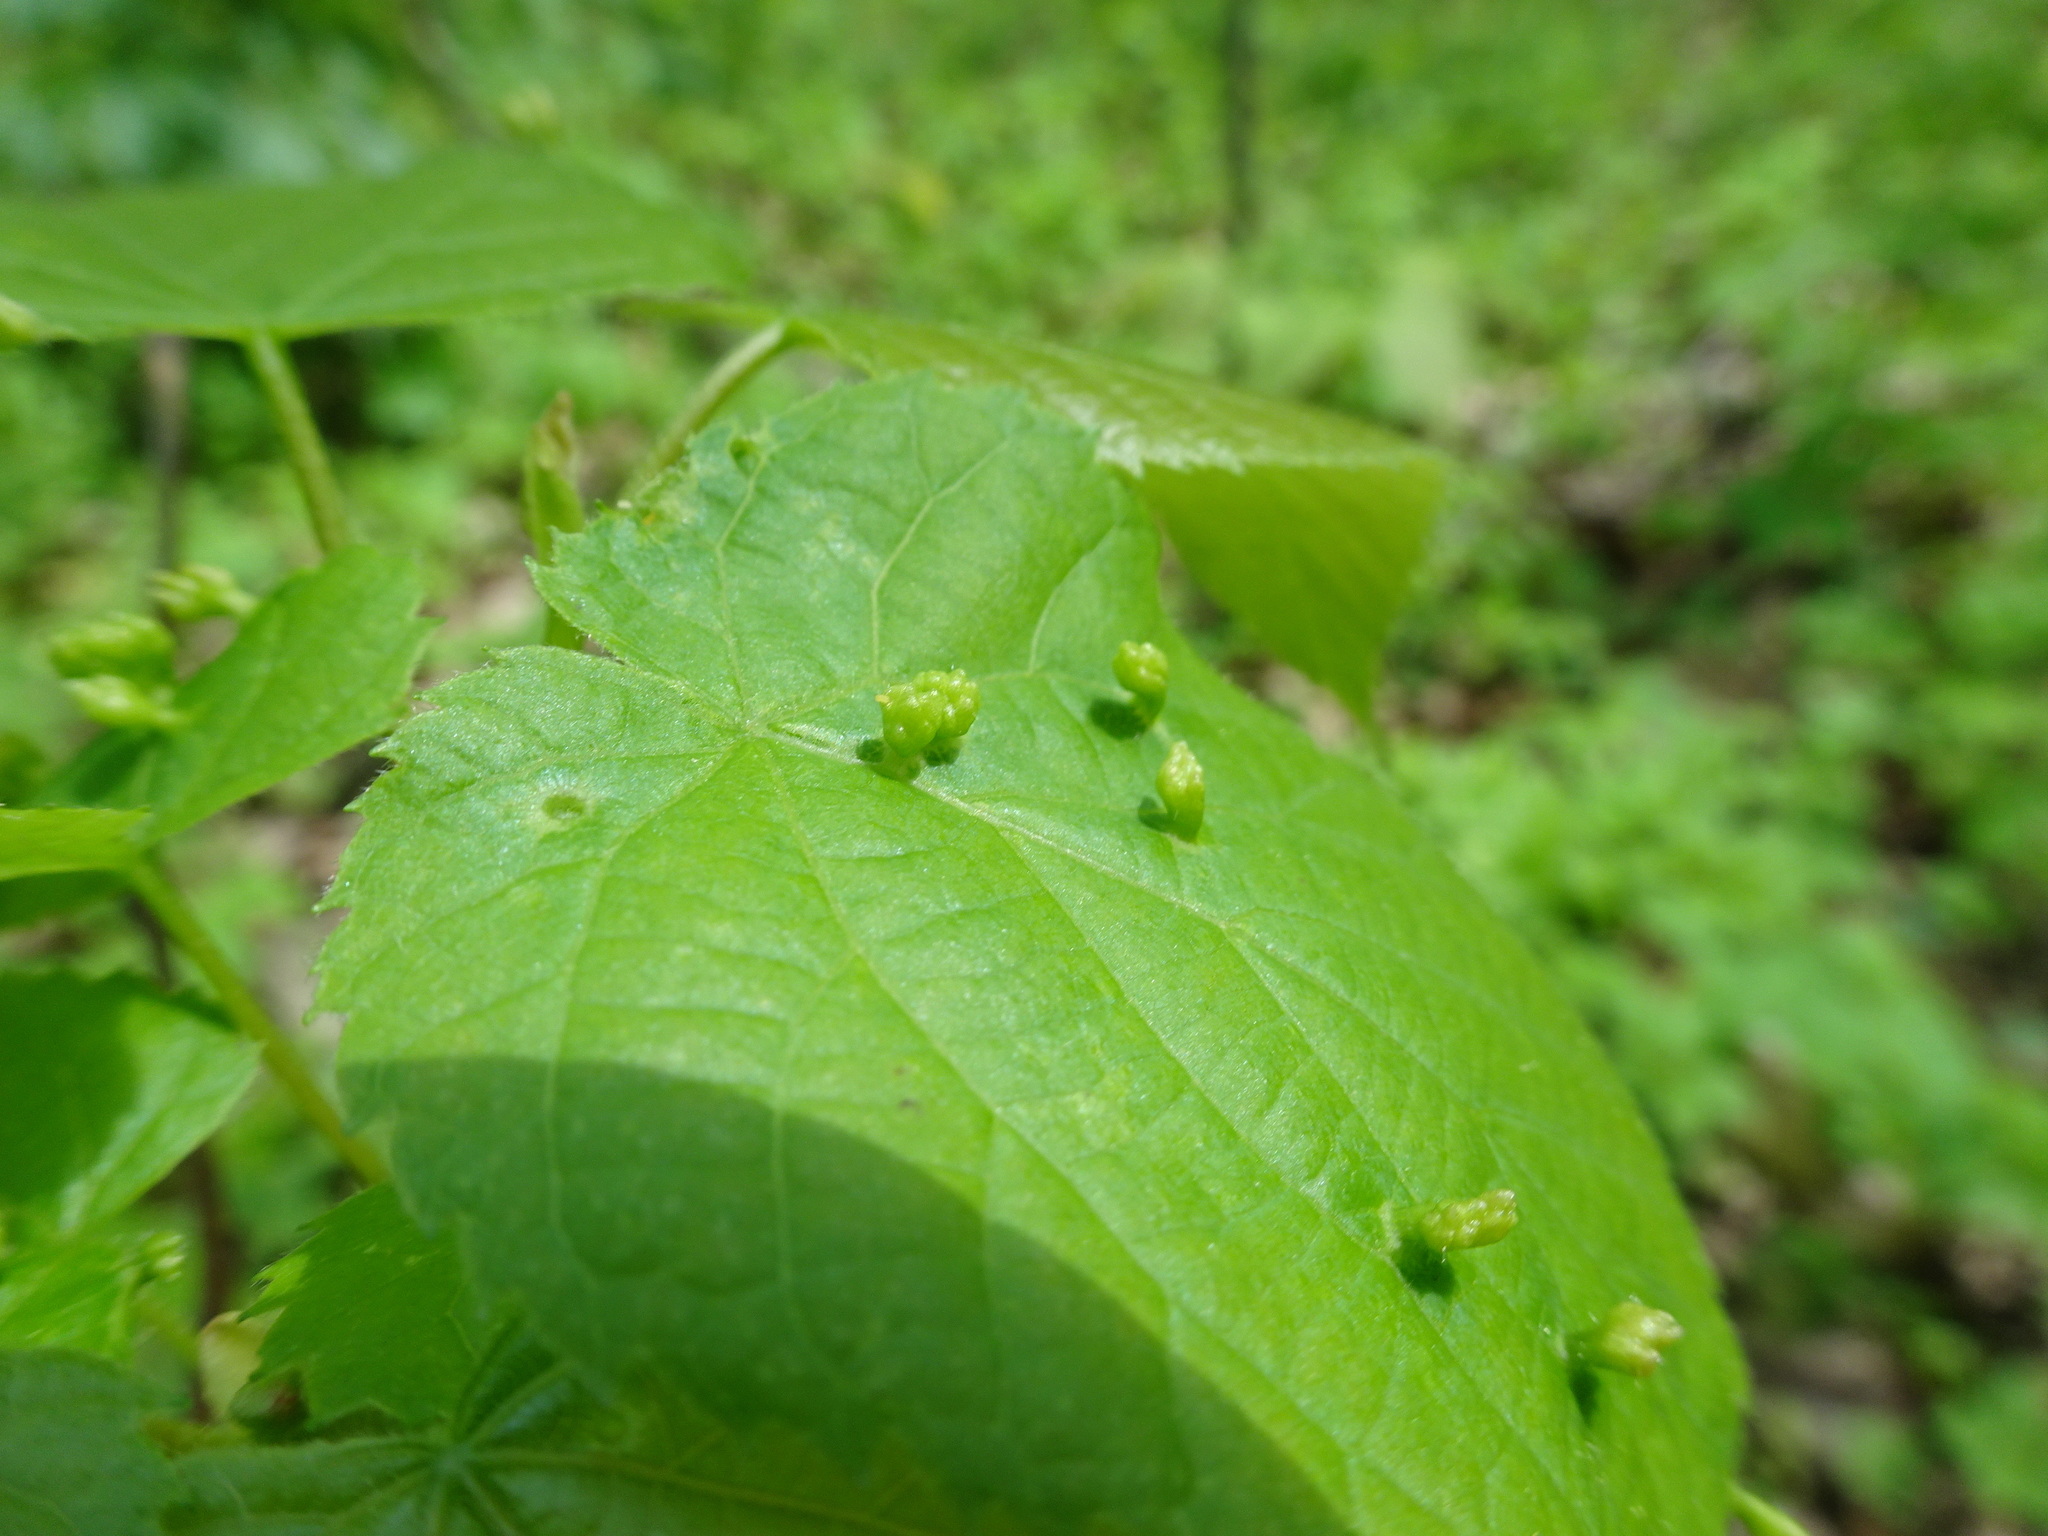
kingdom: Animalia
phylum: Arthropoda
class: Arachnida
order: Trombidiformes
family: Eriophyidae
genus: Eriophyes
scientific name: Eriophyes tiliae
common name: Red nail gall mite
